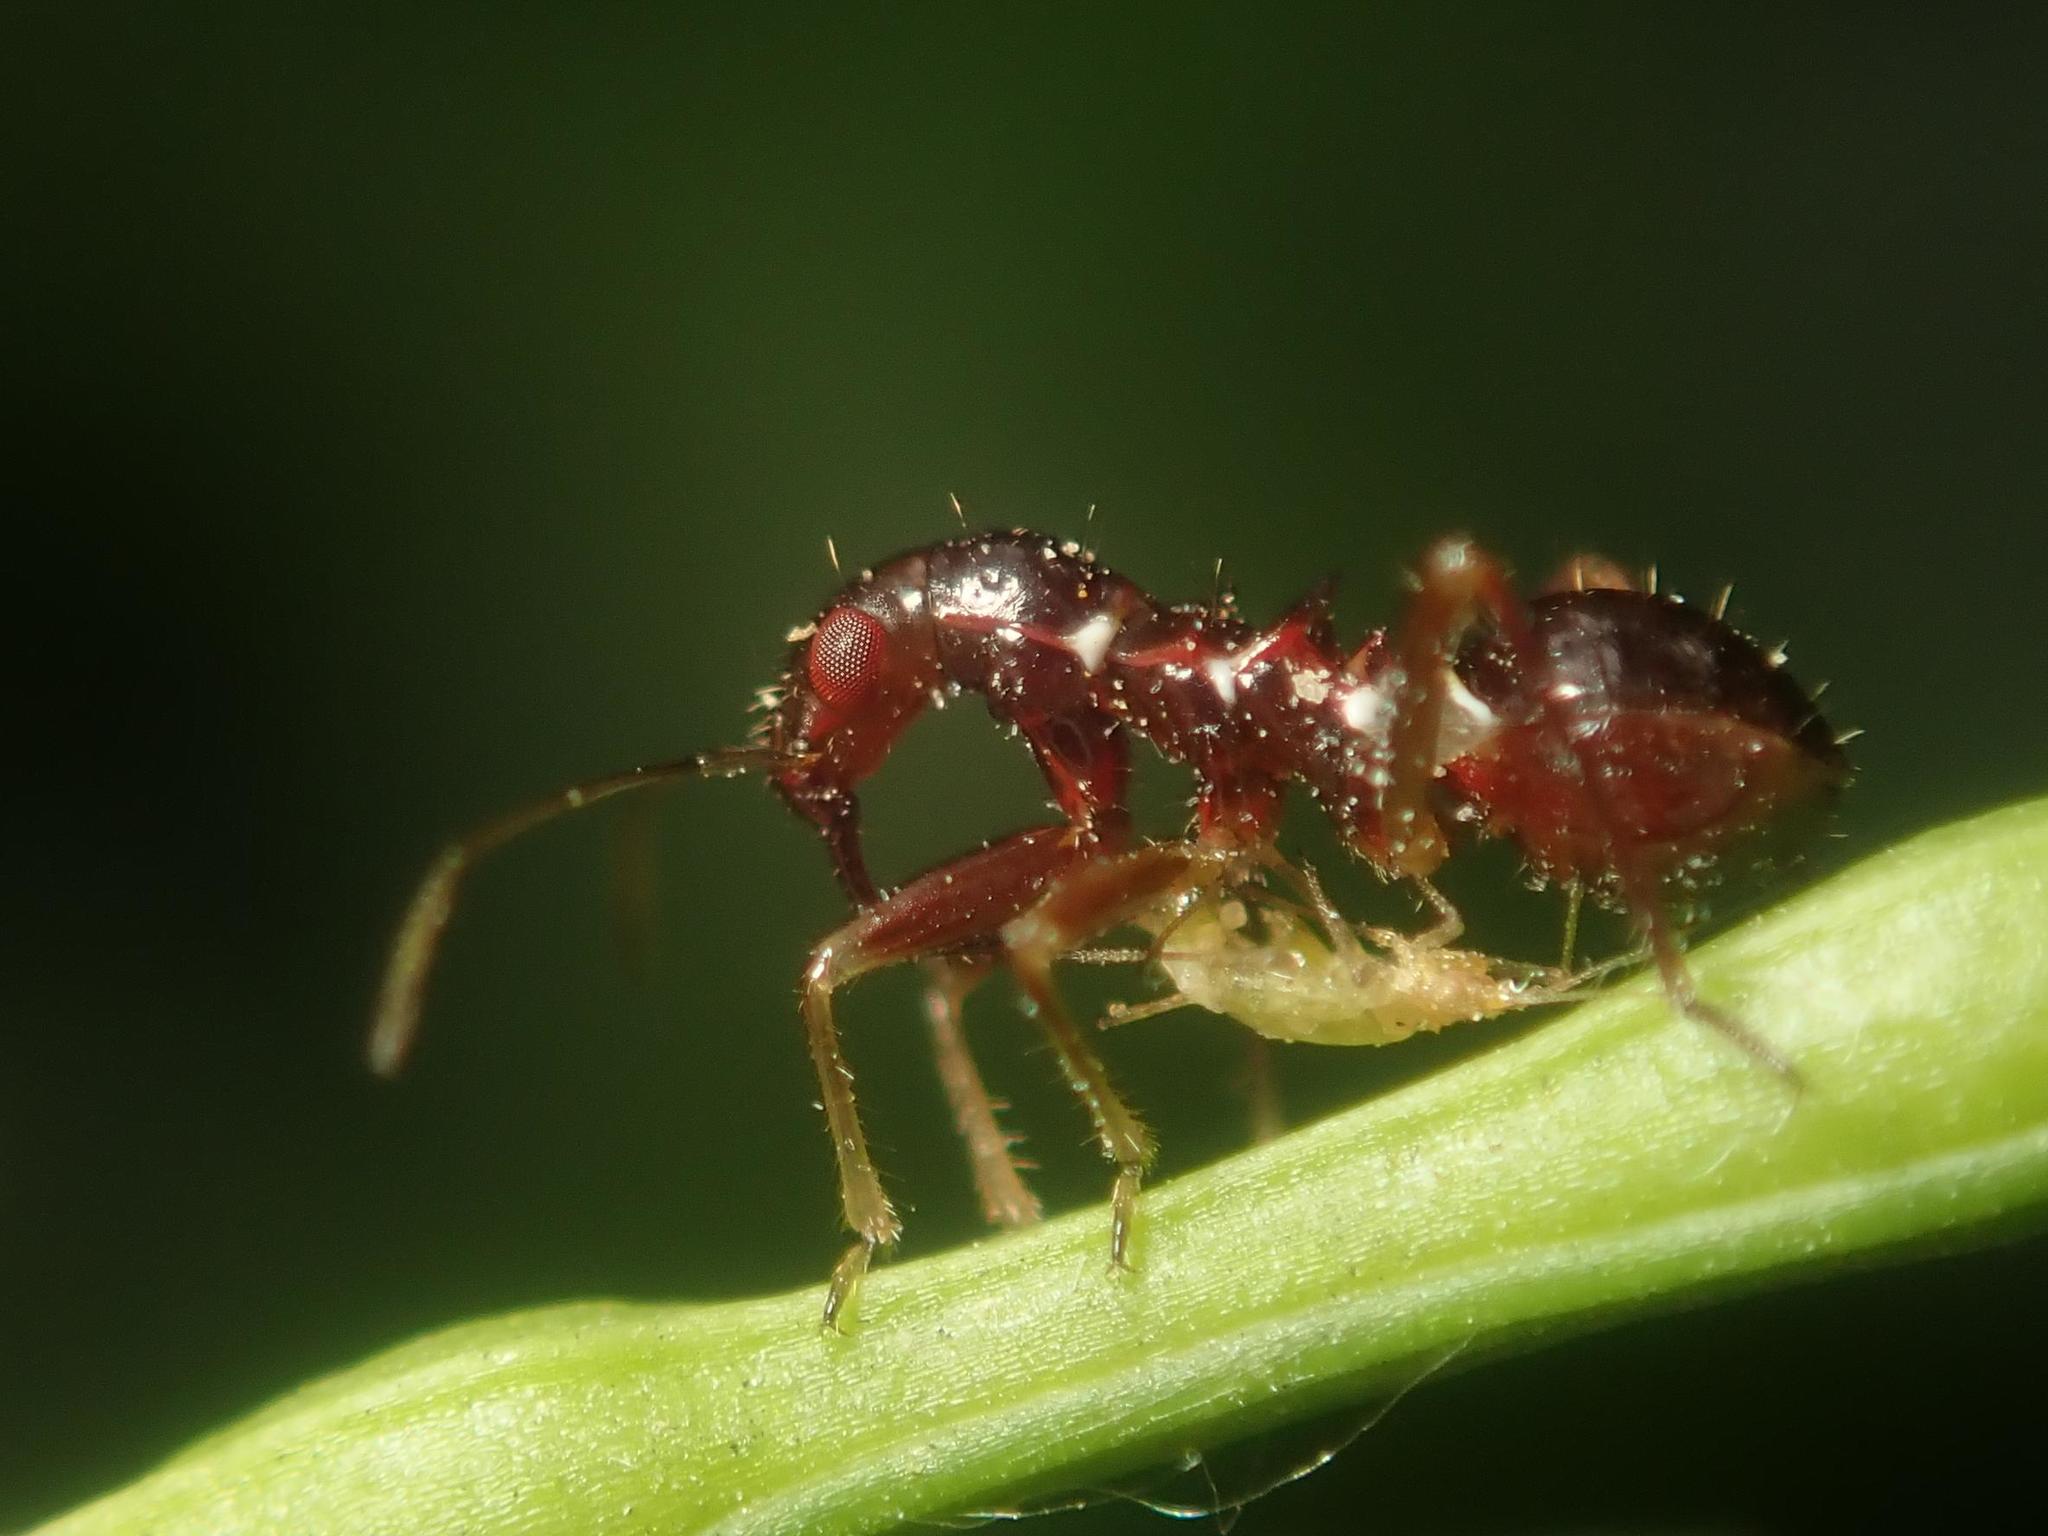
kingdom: Animalia
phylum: Arthropoda
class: Insecta
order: Hemiptera
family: Nabidae
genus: Himacerus
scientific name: Himacerus mirmicoides
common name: Ant damsel bug
